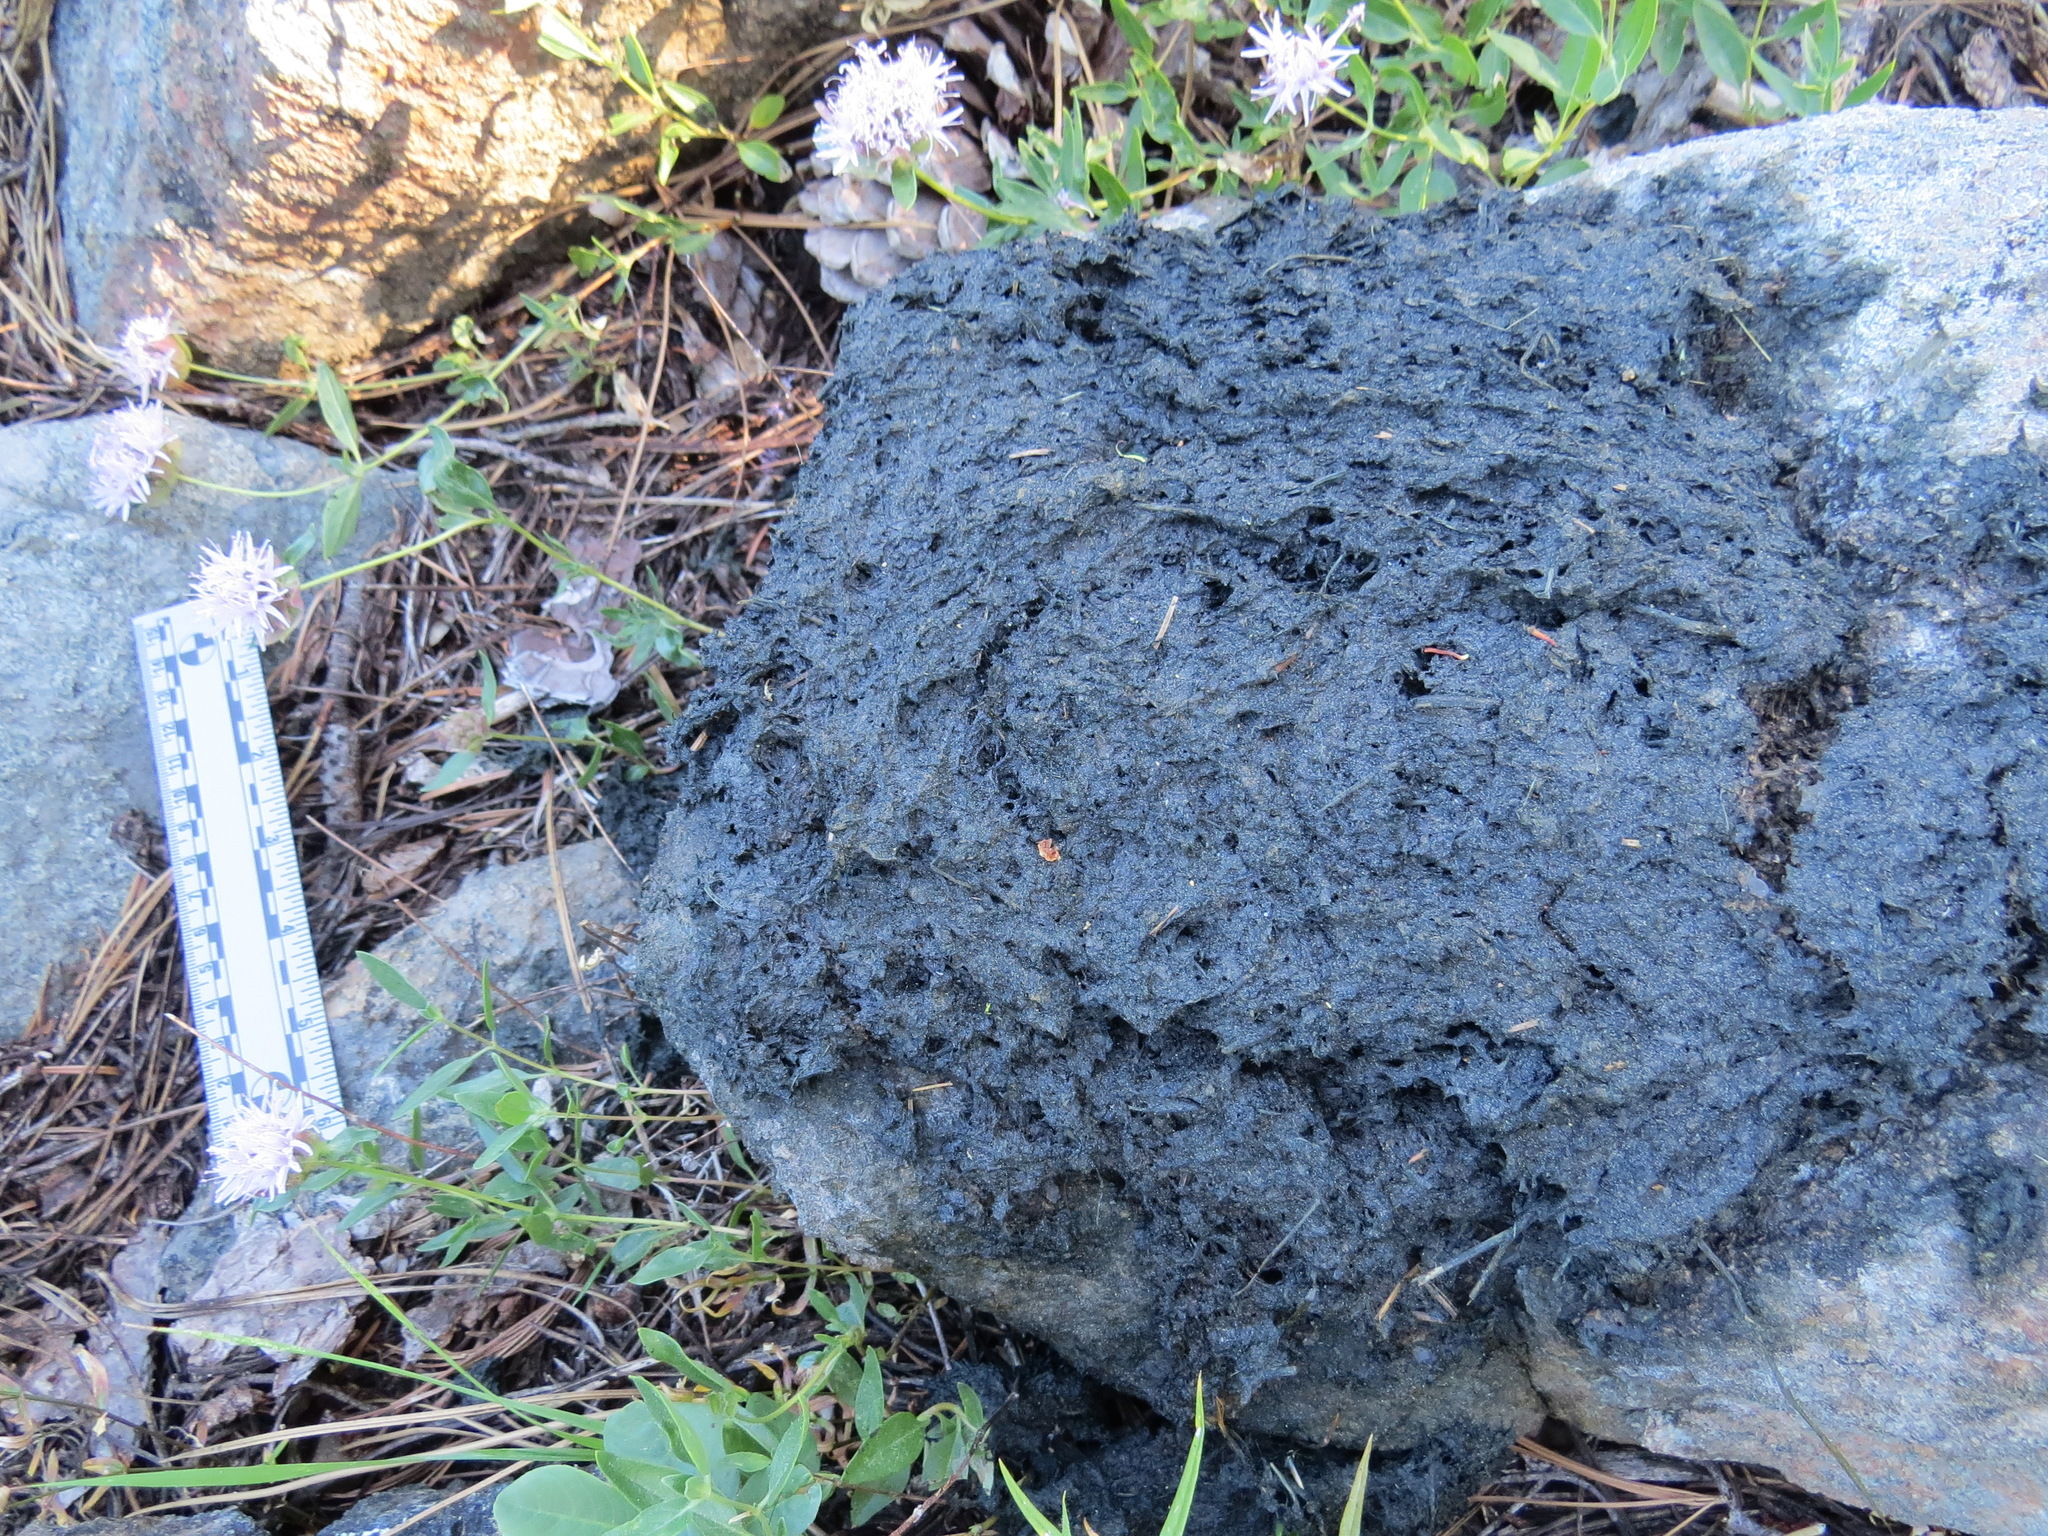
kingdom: Animalia
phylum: Chordata
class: Mammalia
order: Carnivora
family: Ursidae
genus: Ursus
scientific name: Ursus americanus
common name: American black bear
